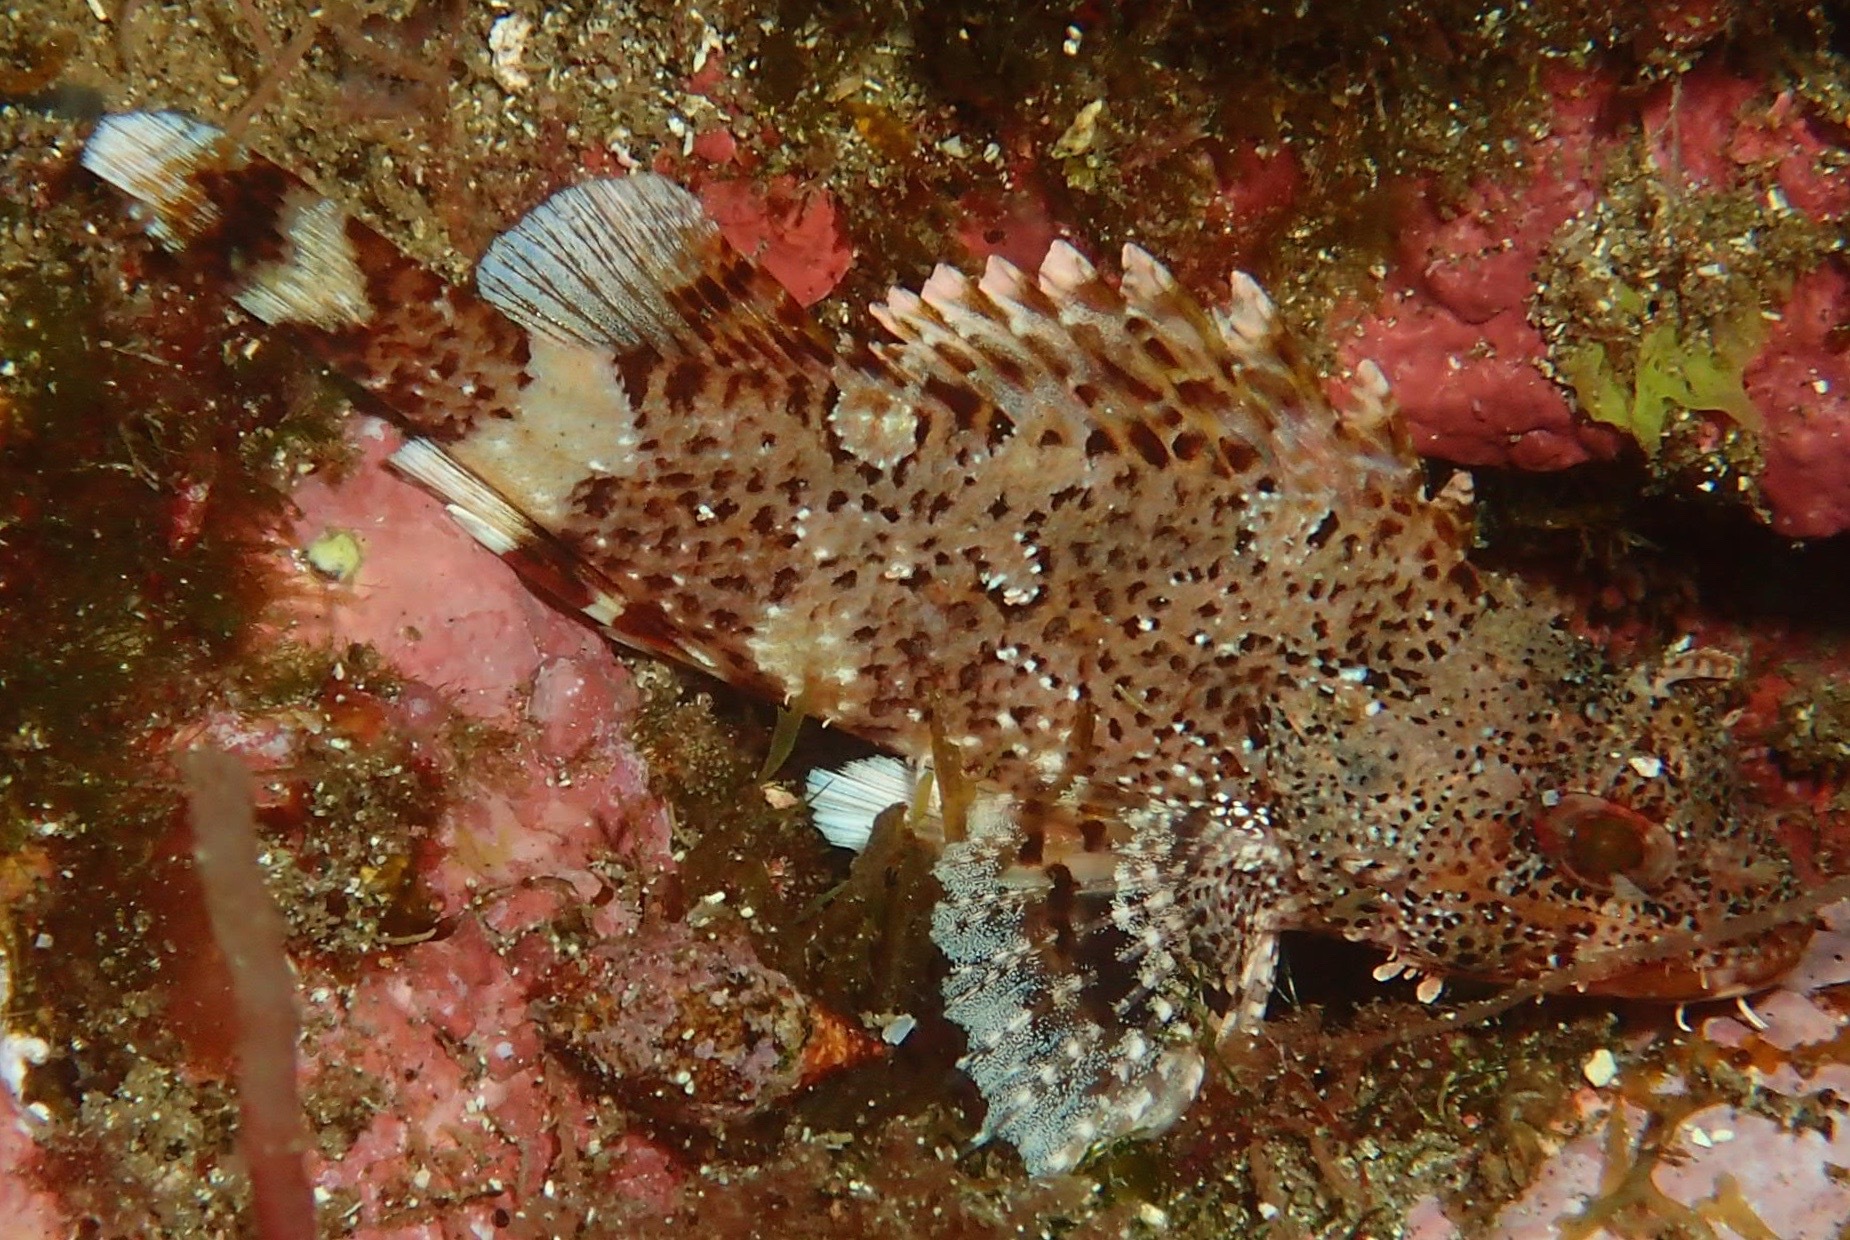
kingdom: Animalia
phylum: Chordata
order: Scorpaeniformes
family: Scorpaenidae
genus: Scorpaena
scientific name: Scorpaena maderensis
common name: Madeira rockfish
